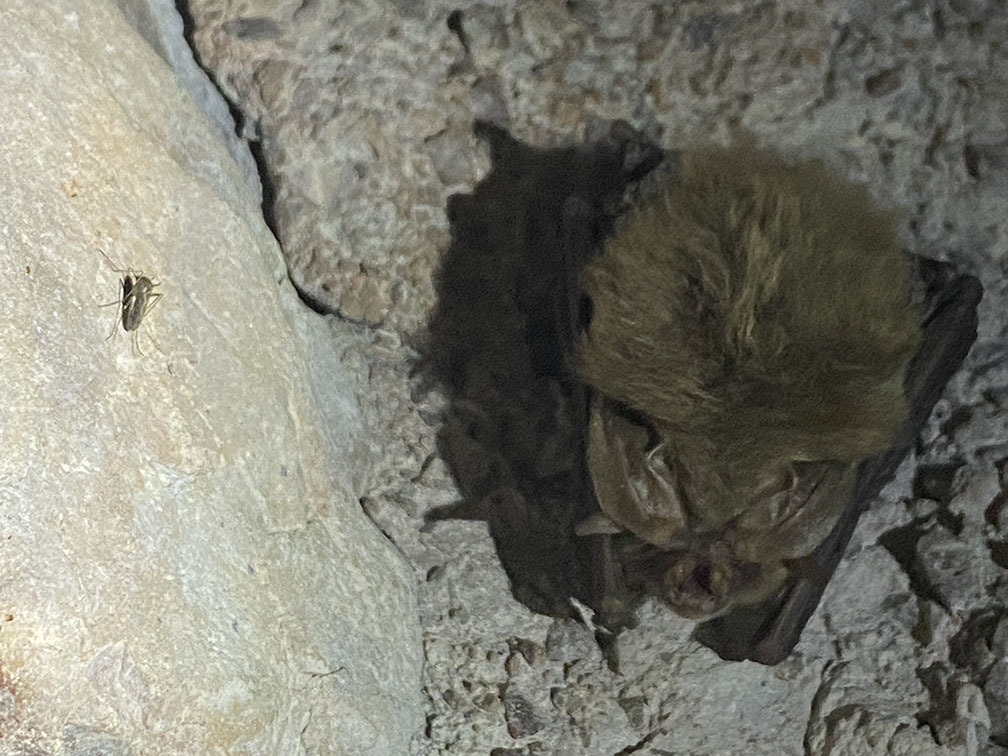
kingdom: Animalia
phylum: Chordata
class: Mammalia
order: Chiroptera
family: Vespertilionidae
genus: Corynorhinus
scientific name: Corynorhinus townsendii
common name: Townsend's big-eared bat
